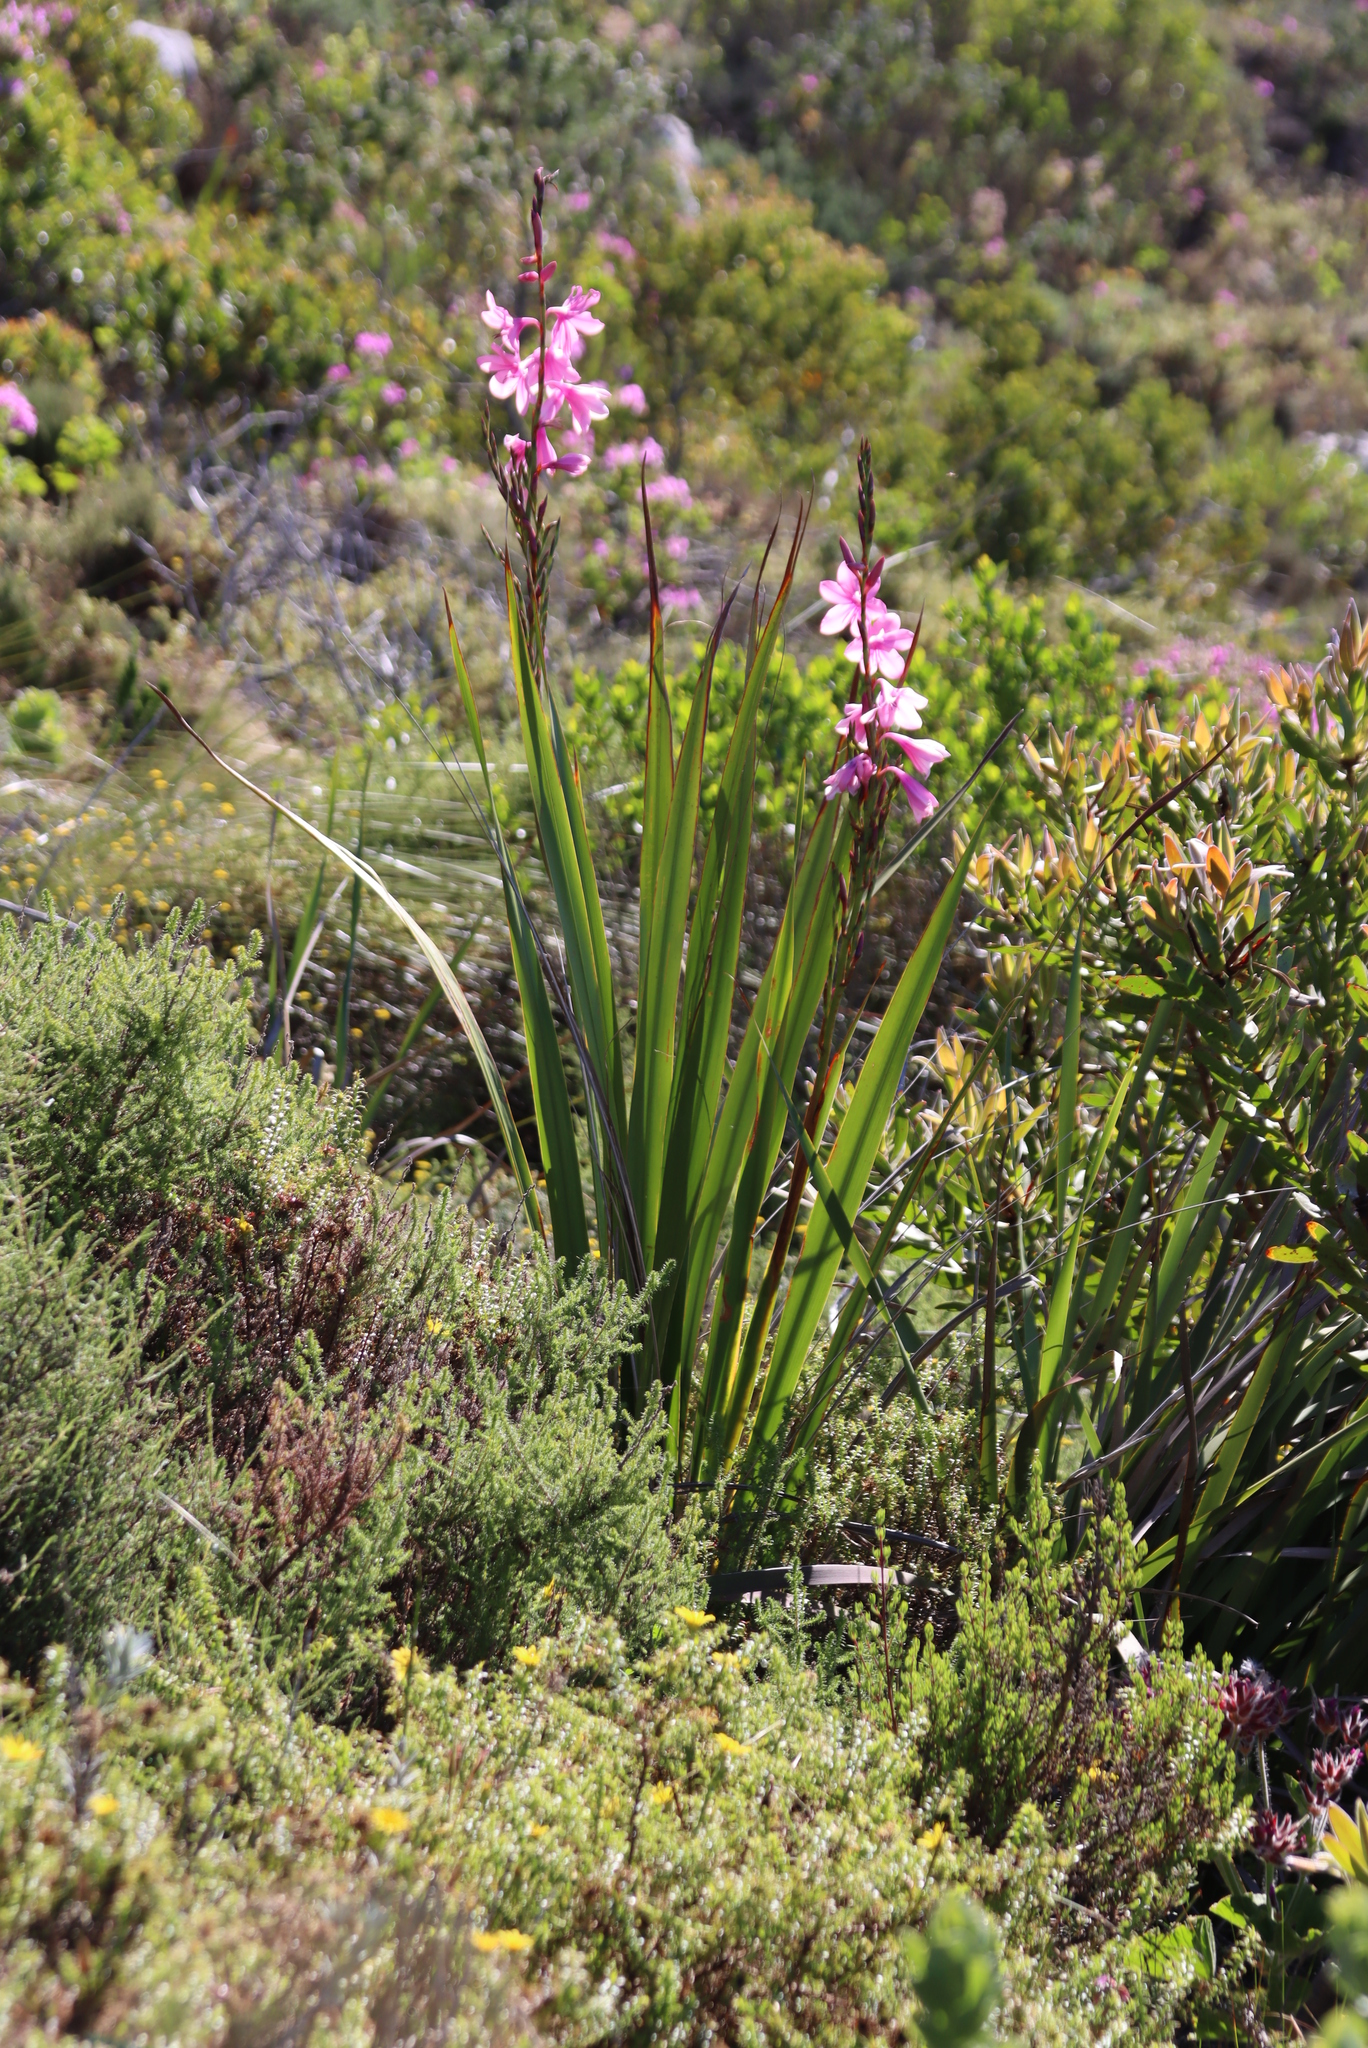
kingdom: Plantae
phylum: Tracheophyta
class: Liliopsida
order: Asparagales
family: Iridaceae
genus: Watsonia
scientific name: Watsonia borbonica
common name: Bugle-lily
